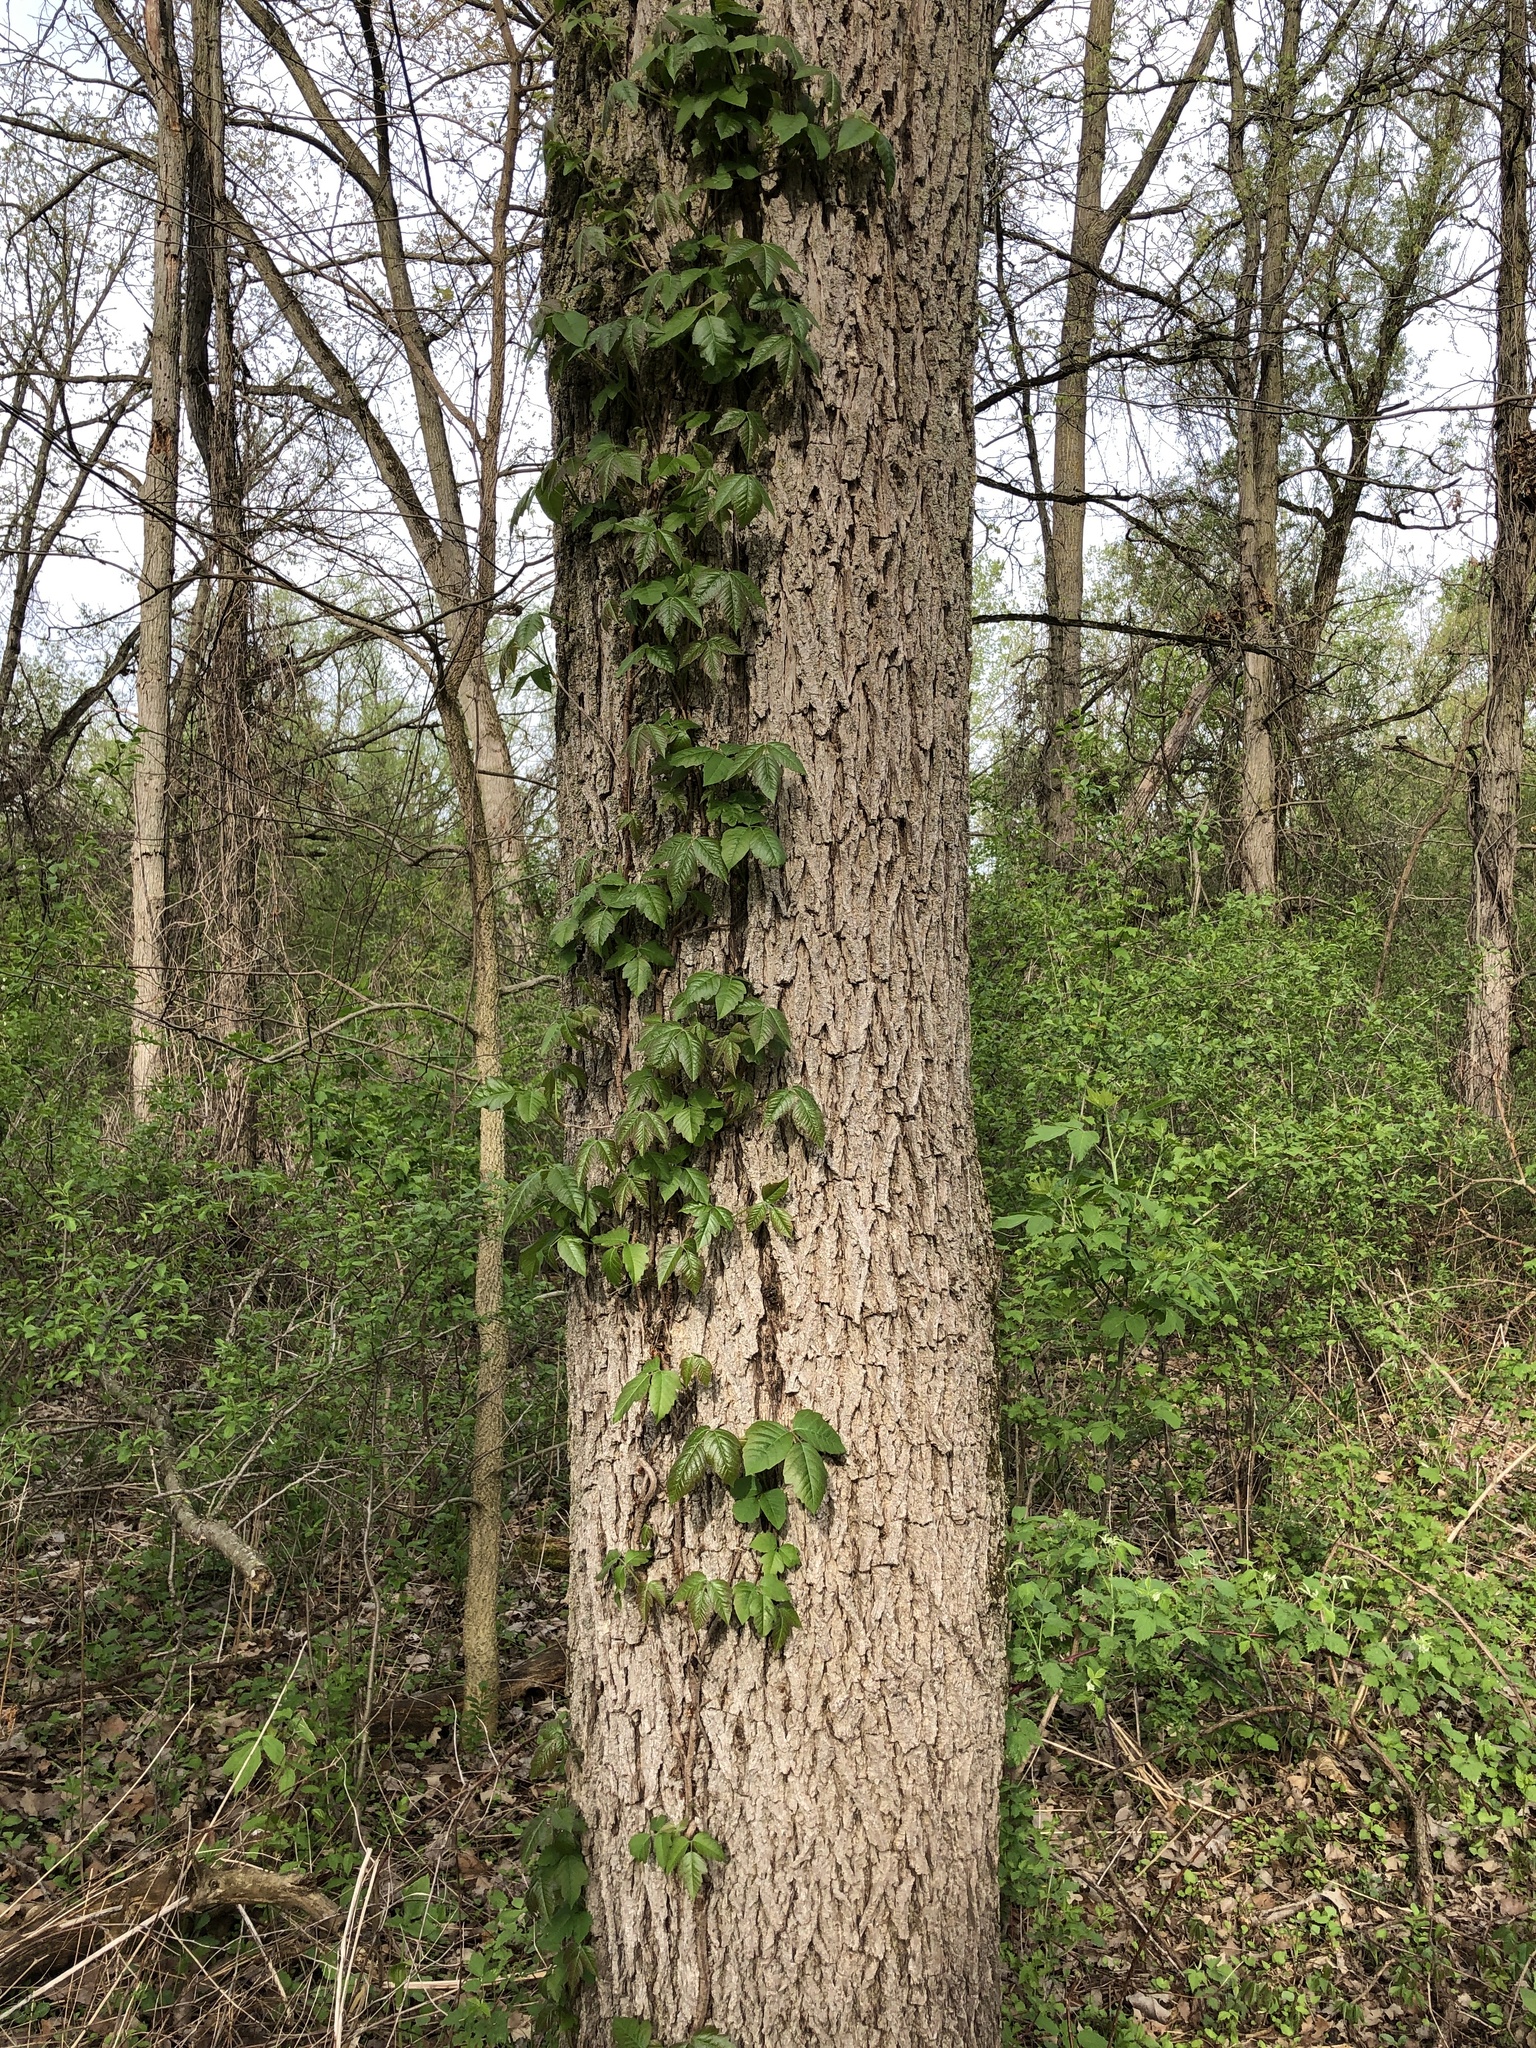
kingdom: Plantae
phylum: Tracheophyta
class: Magnoliopsida
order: Sapindales
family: Anacardiaceae
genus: Toxicodendron
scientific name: Toxicodendron radicans
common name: Poison ivy
